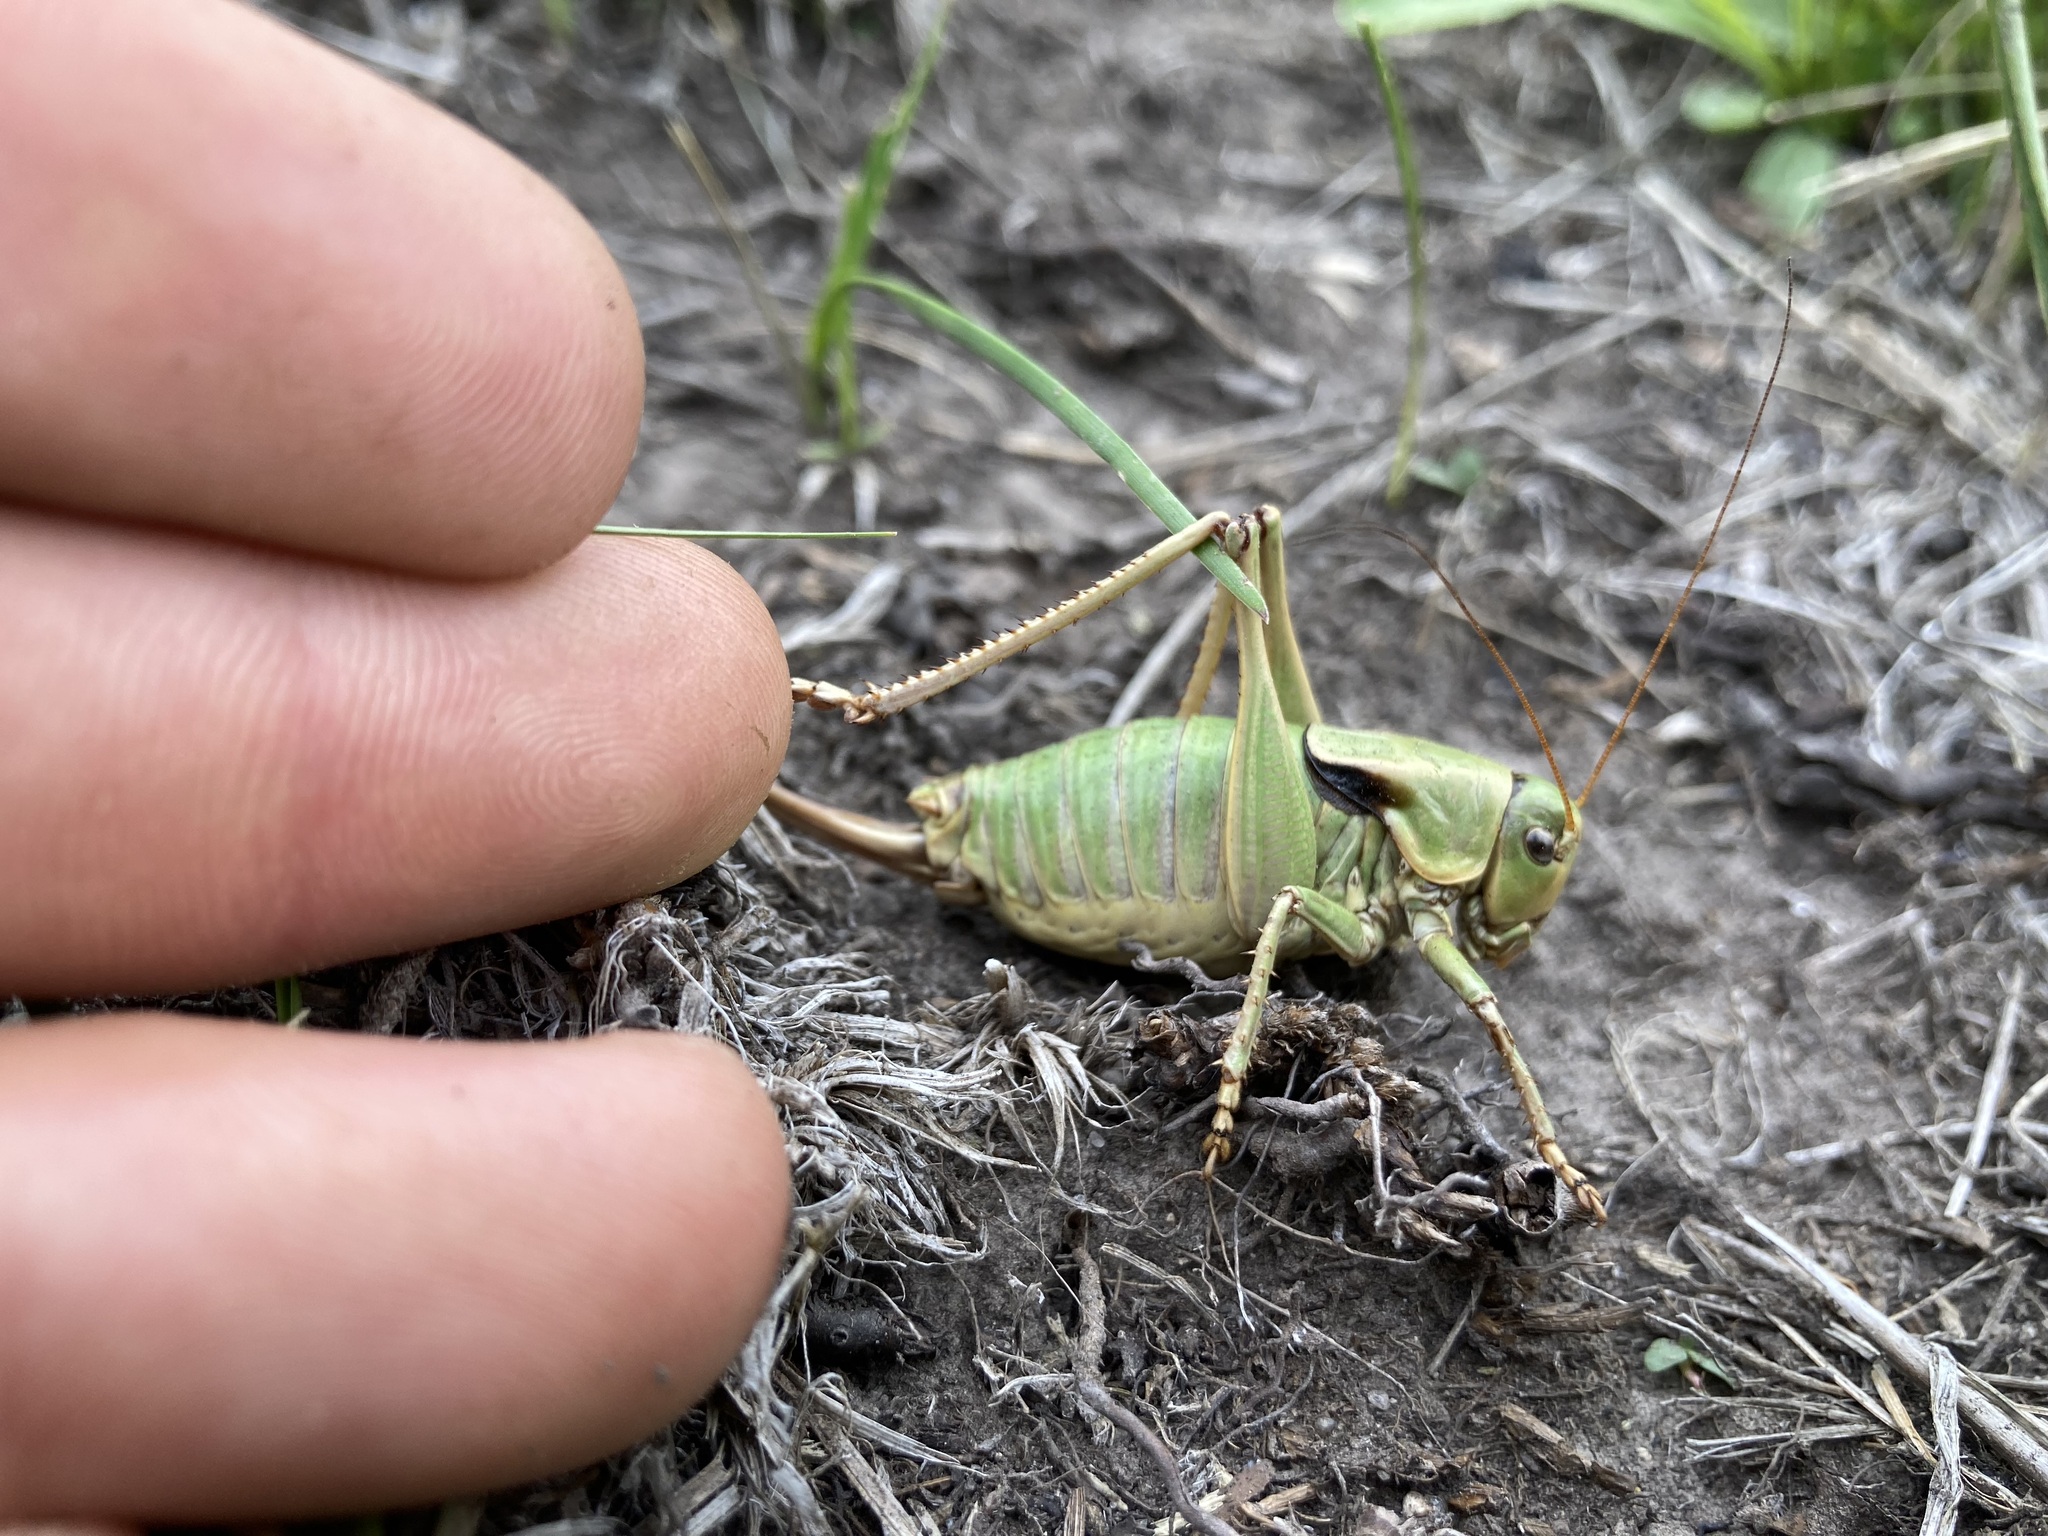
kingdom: Animalia
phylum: Arthropoda
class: Insecta
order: Orthoptera
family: Tettigoniidae
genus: Anabrus
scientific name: Anabrus simplex
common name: Mormon cricket
